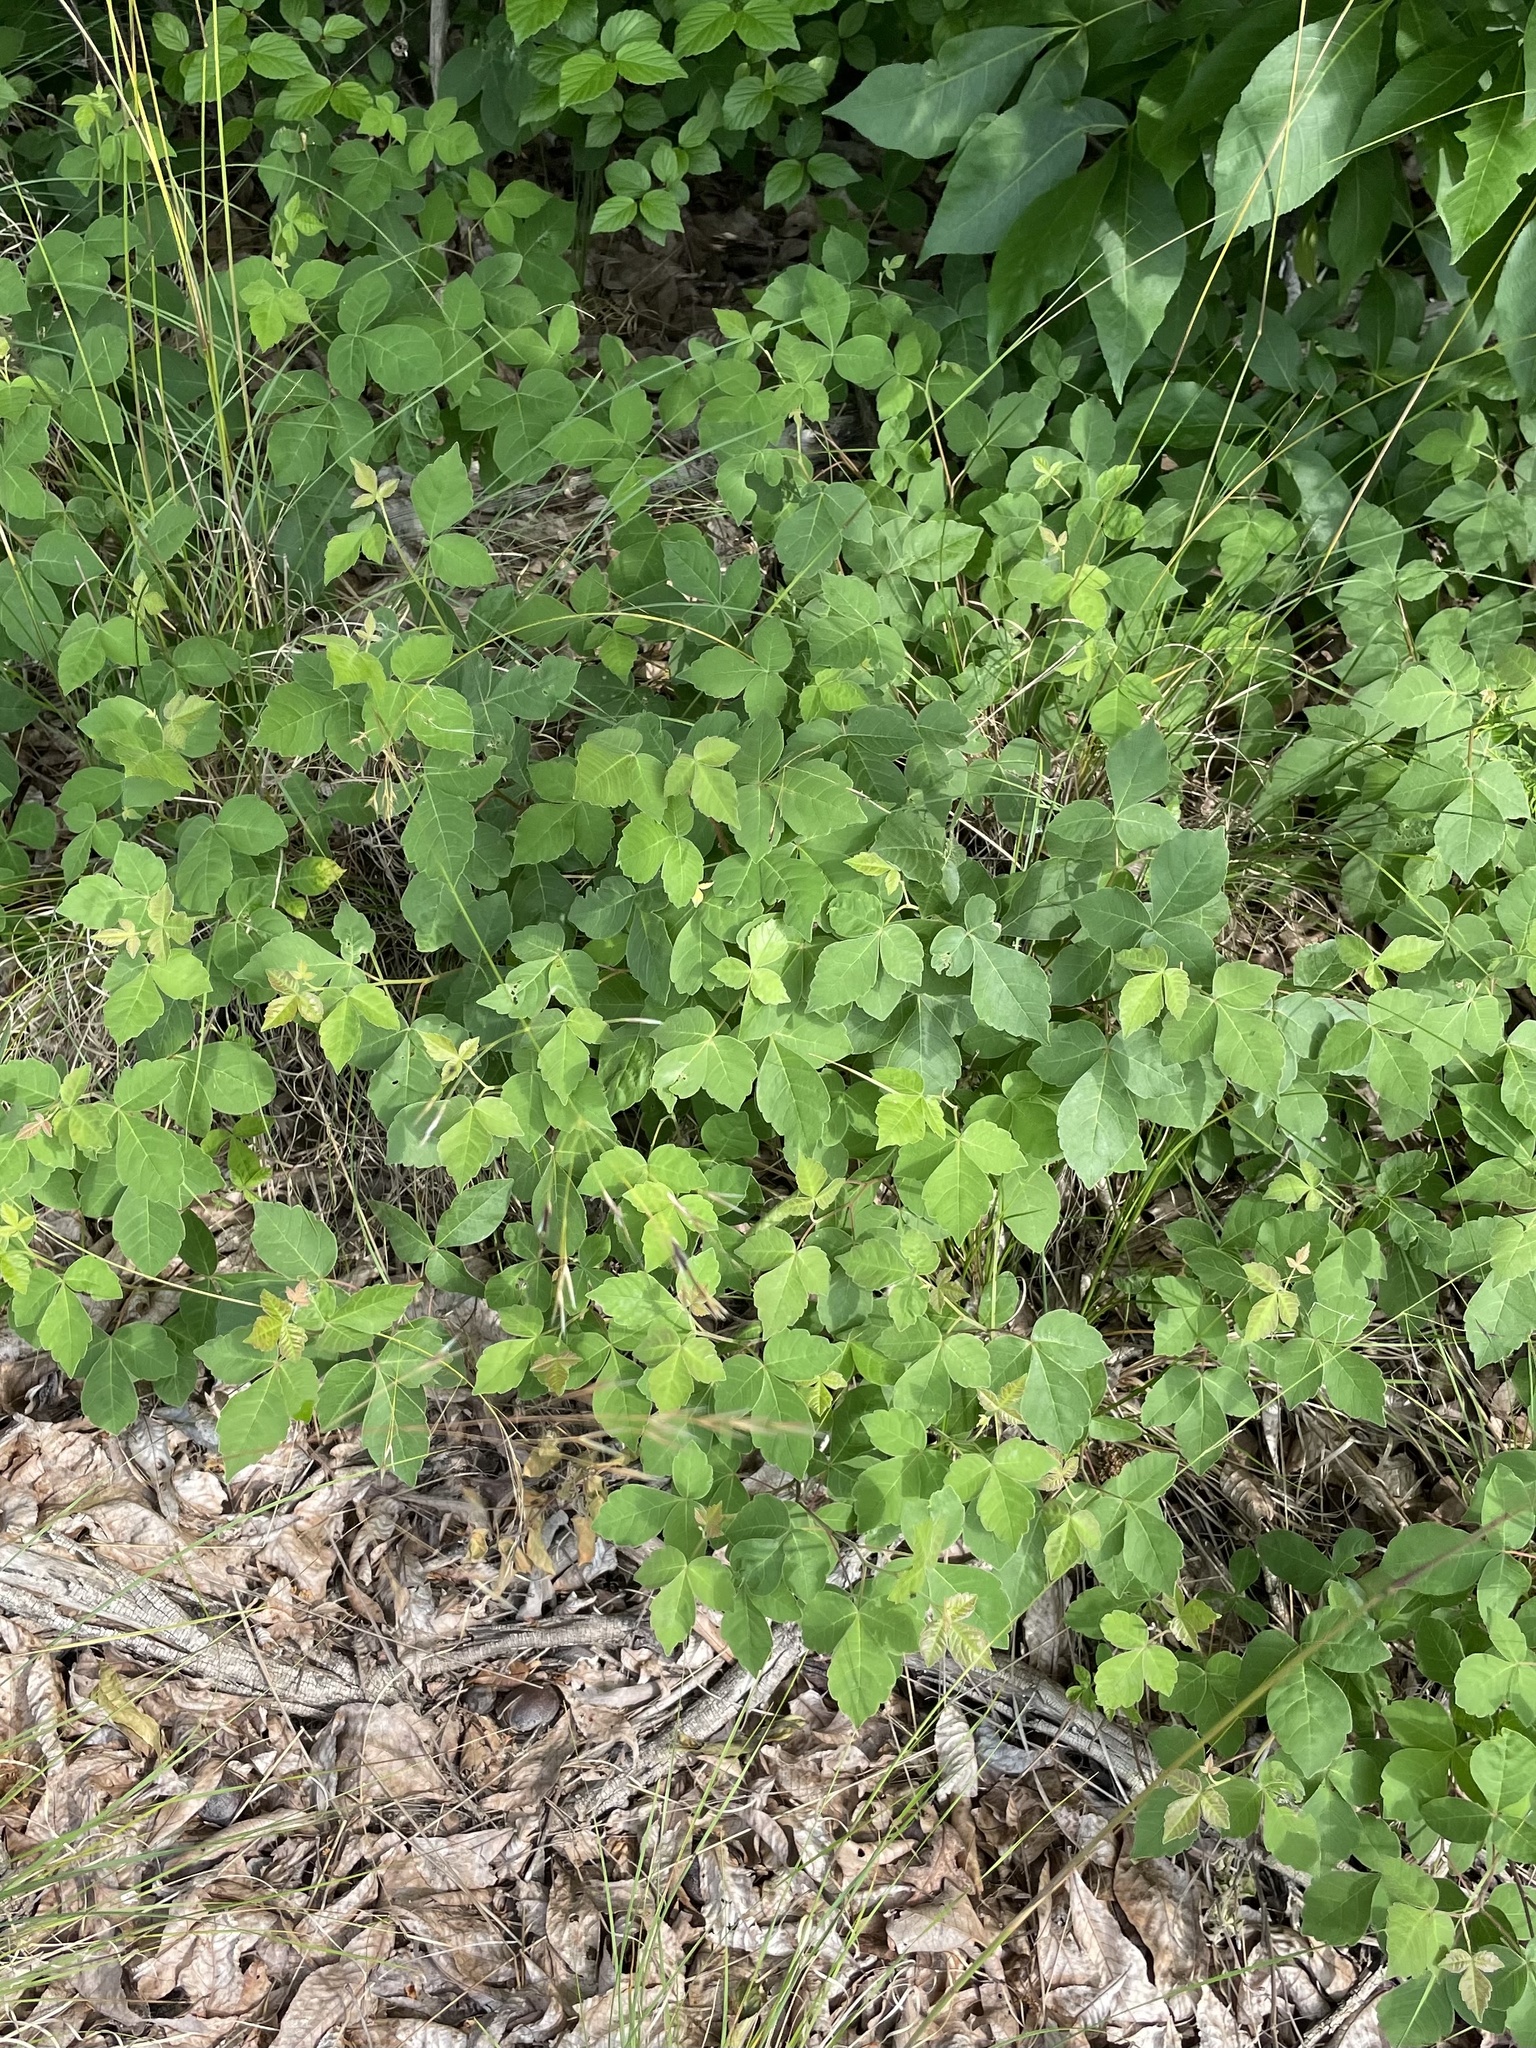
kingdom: Plantae
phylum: Tracheophyta
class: Magnoliopsida
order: Sapindales
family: Anacardiaceae
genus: Rhus
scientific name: Rhus aromatica
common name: Aromatic sumac
